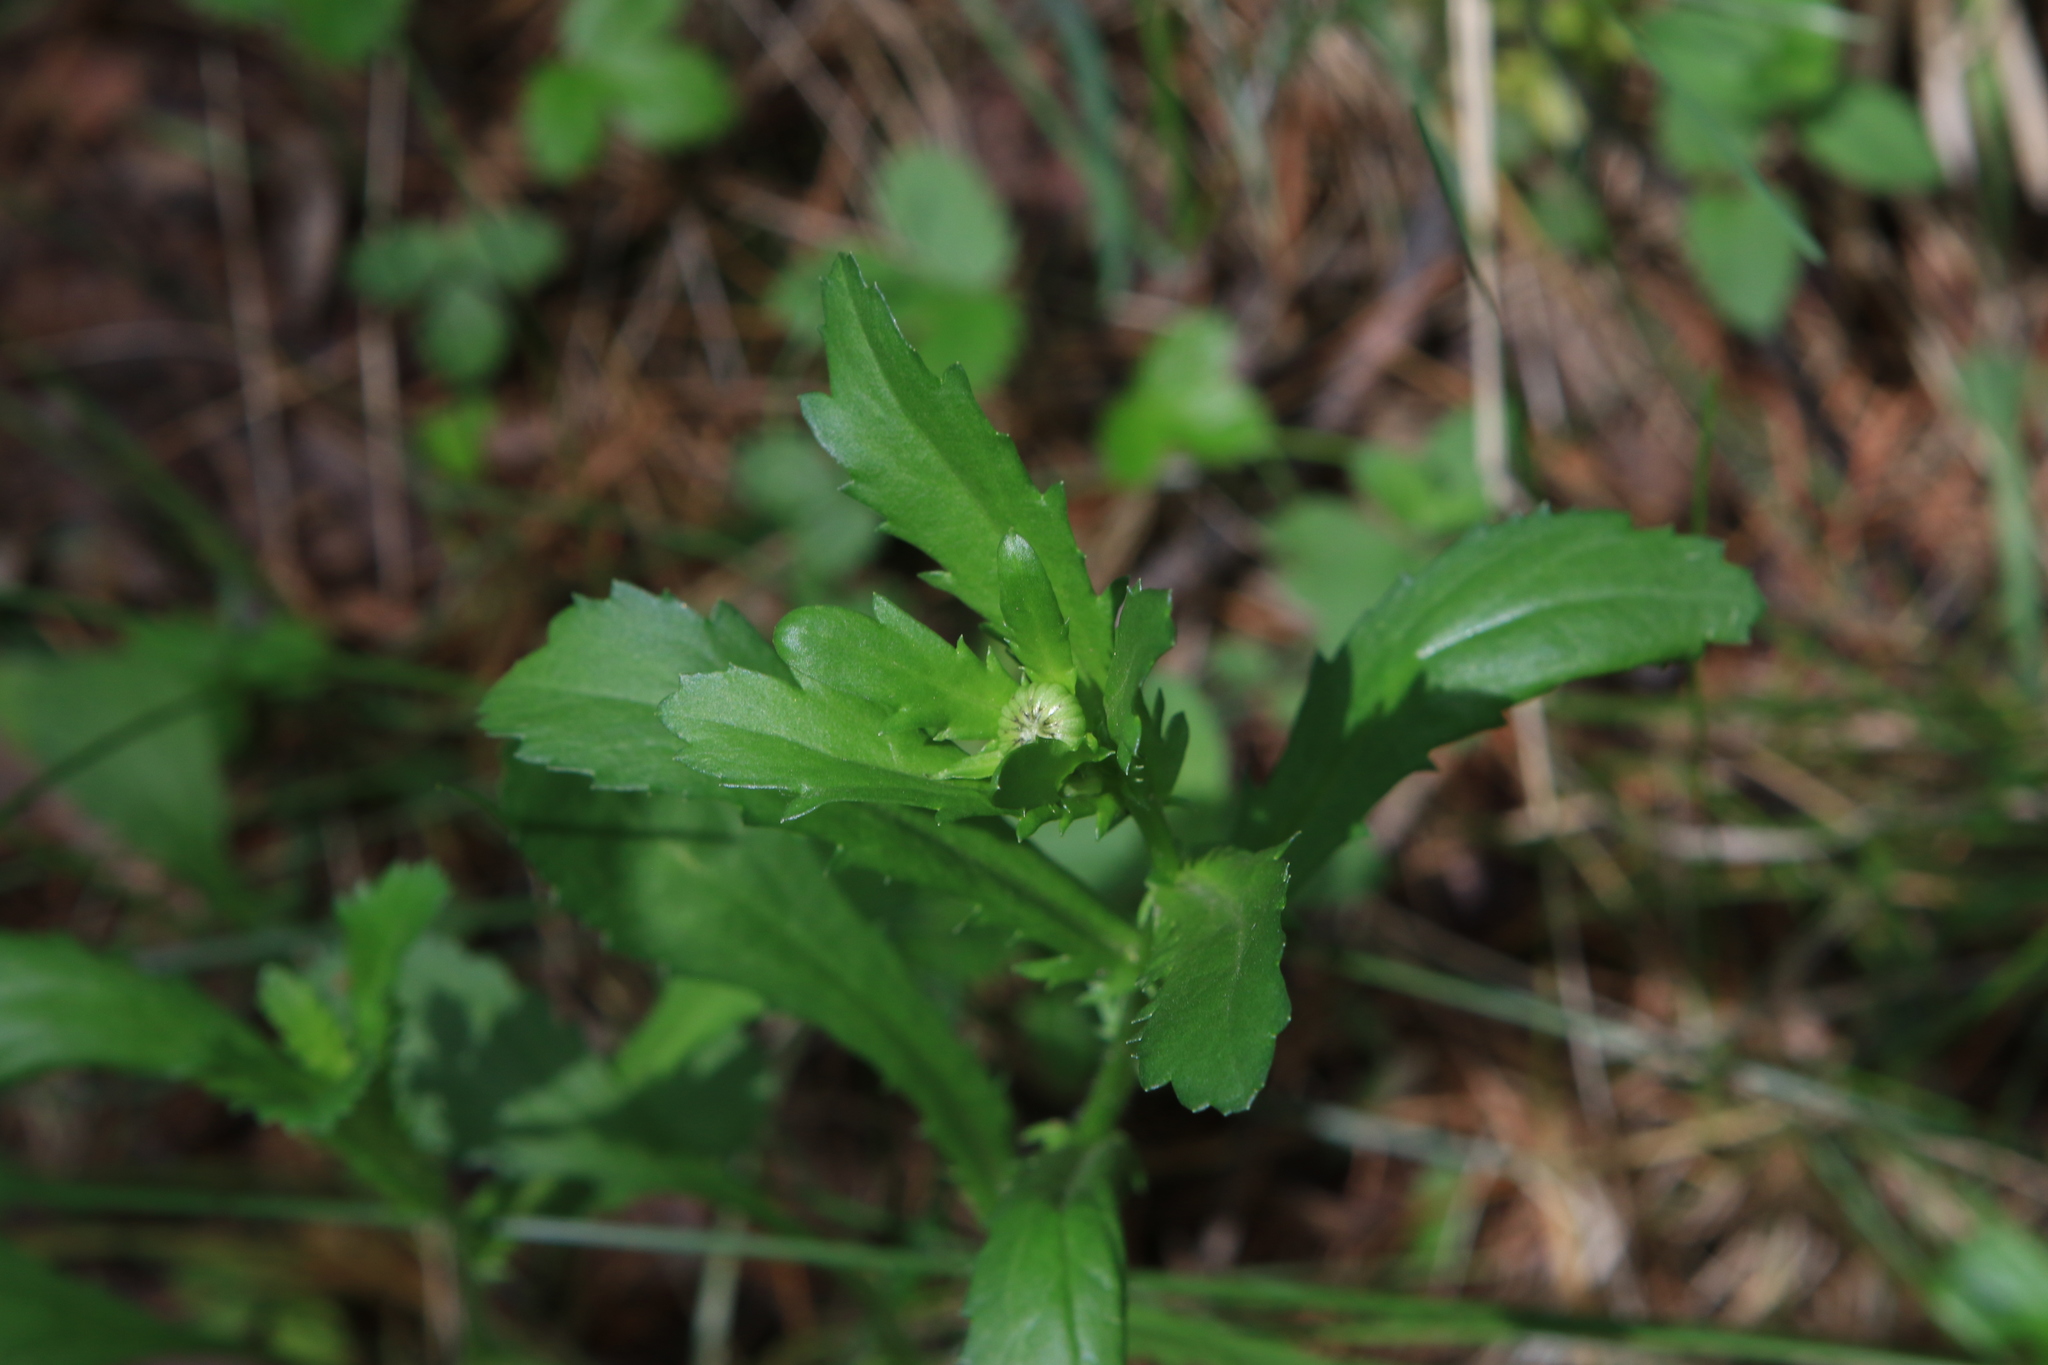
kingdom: Plantae
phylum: Tracheophyta
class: Magnoliopsida
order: Asterales
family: Asteraceae
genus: Leucanthemum
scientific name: Leucanthemum vulgare
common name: Oxeye daisy
